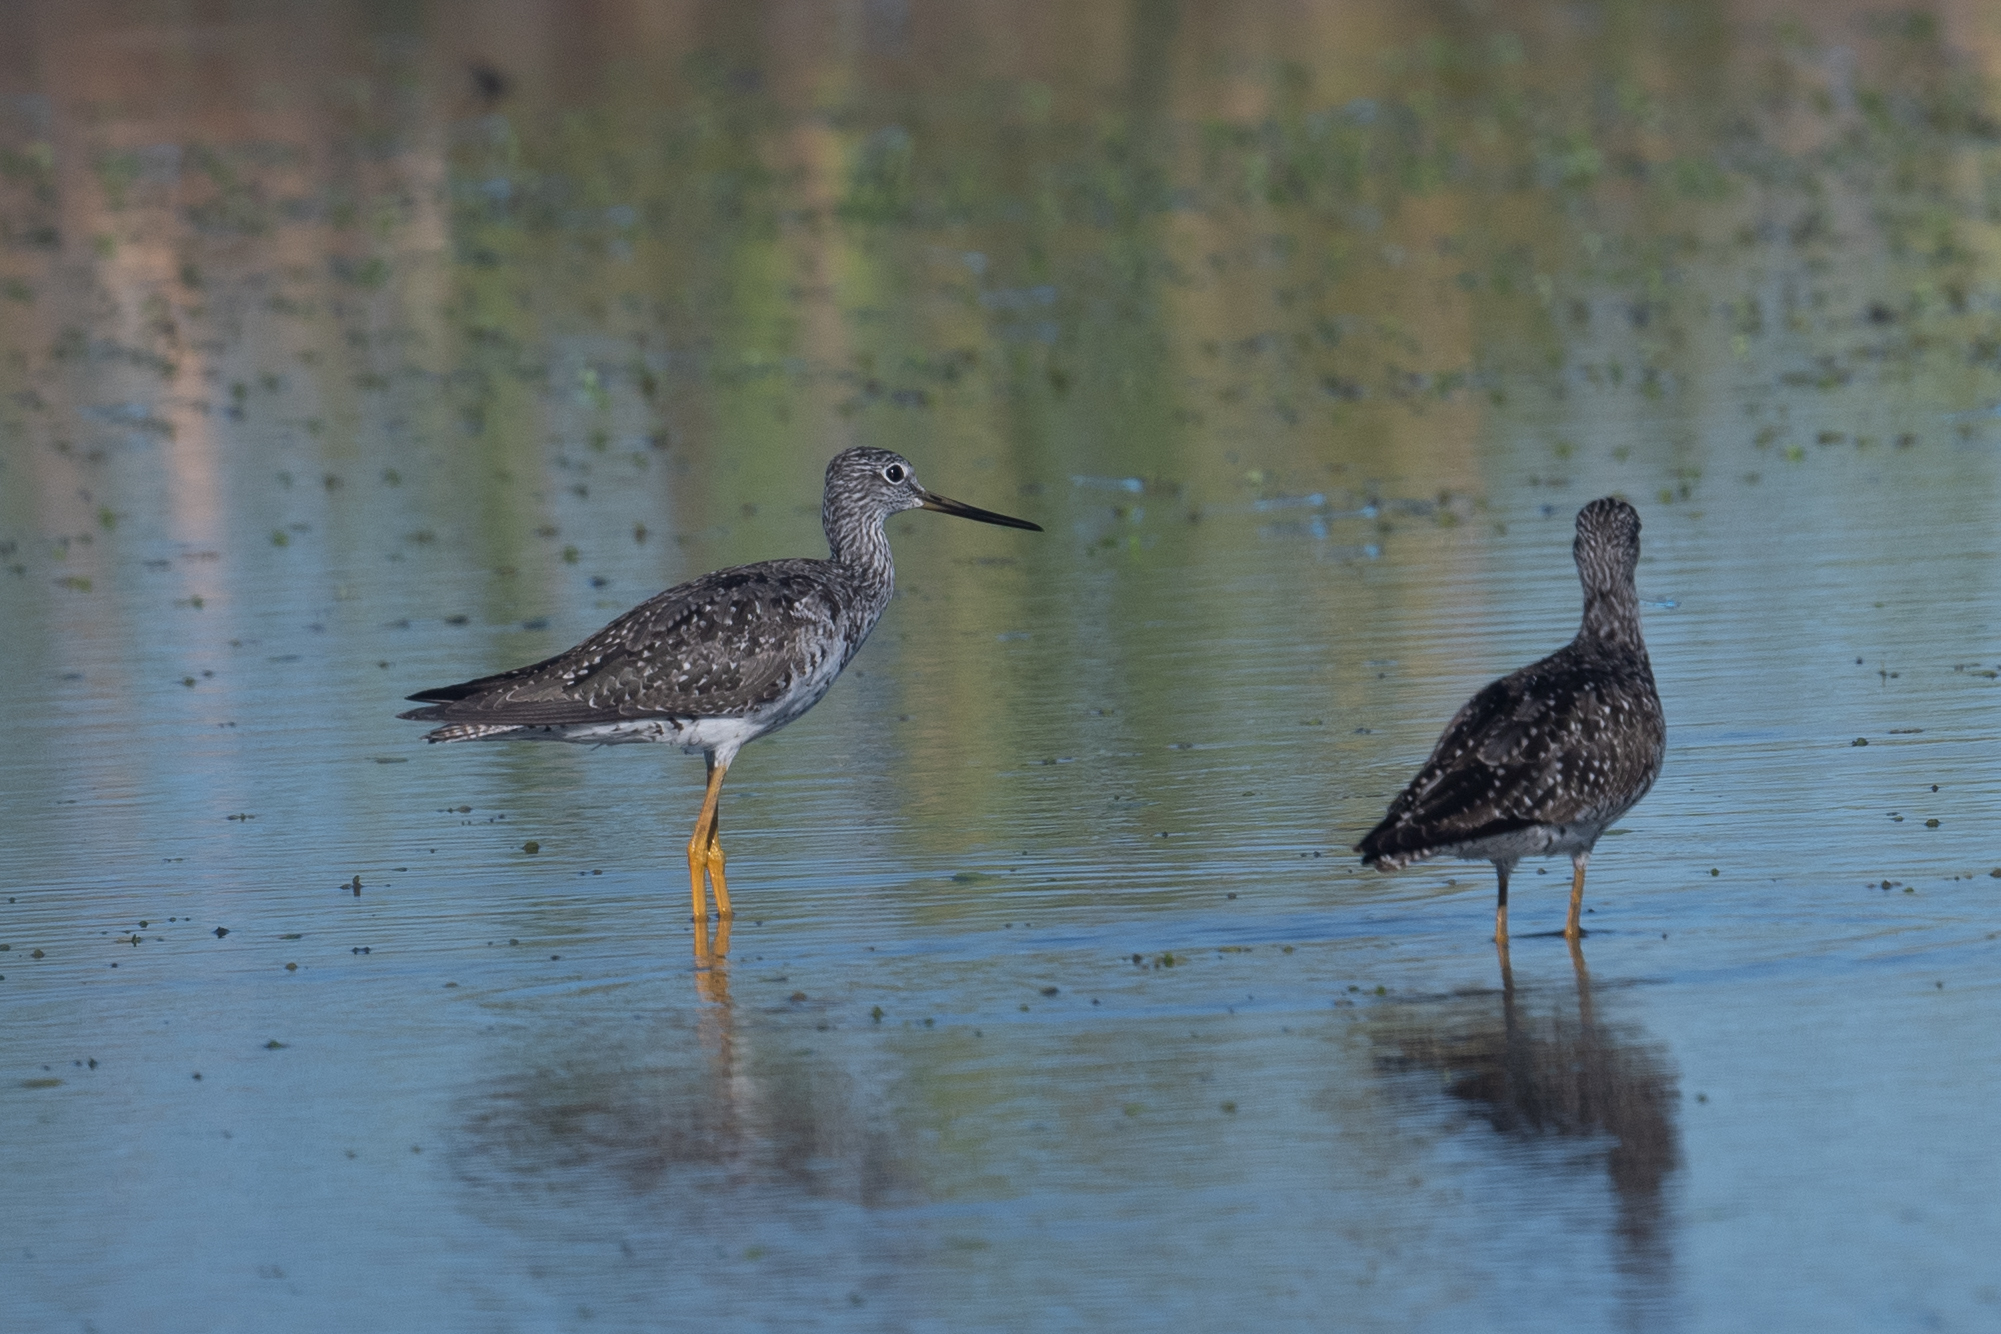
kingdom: Animalia
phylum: Chordata
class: Aves
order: Charadriiformes
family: Scolopacidae
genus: Tringa
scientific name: Tringa melanoleuca
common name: Greater yellowlegs
